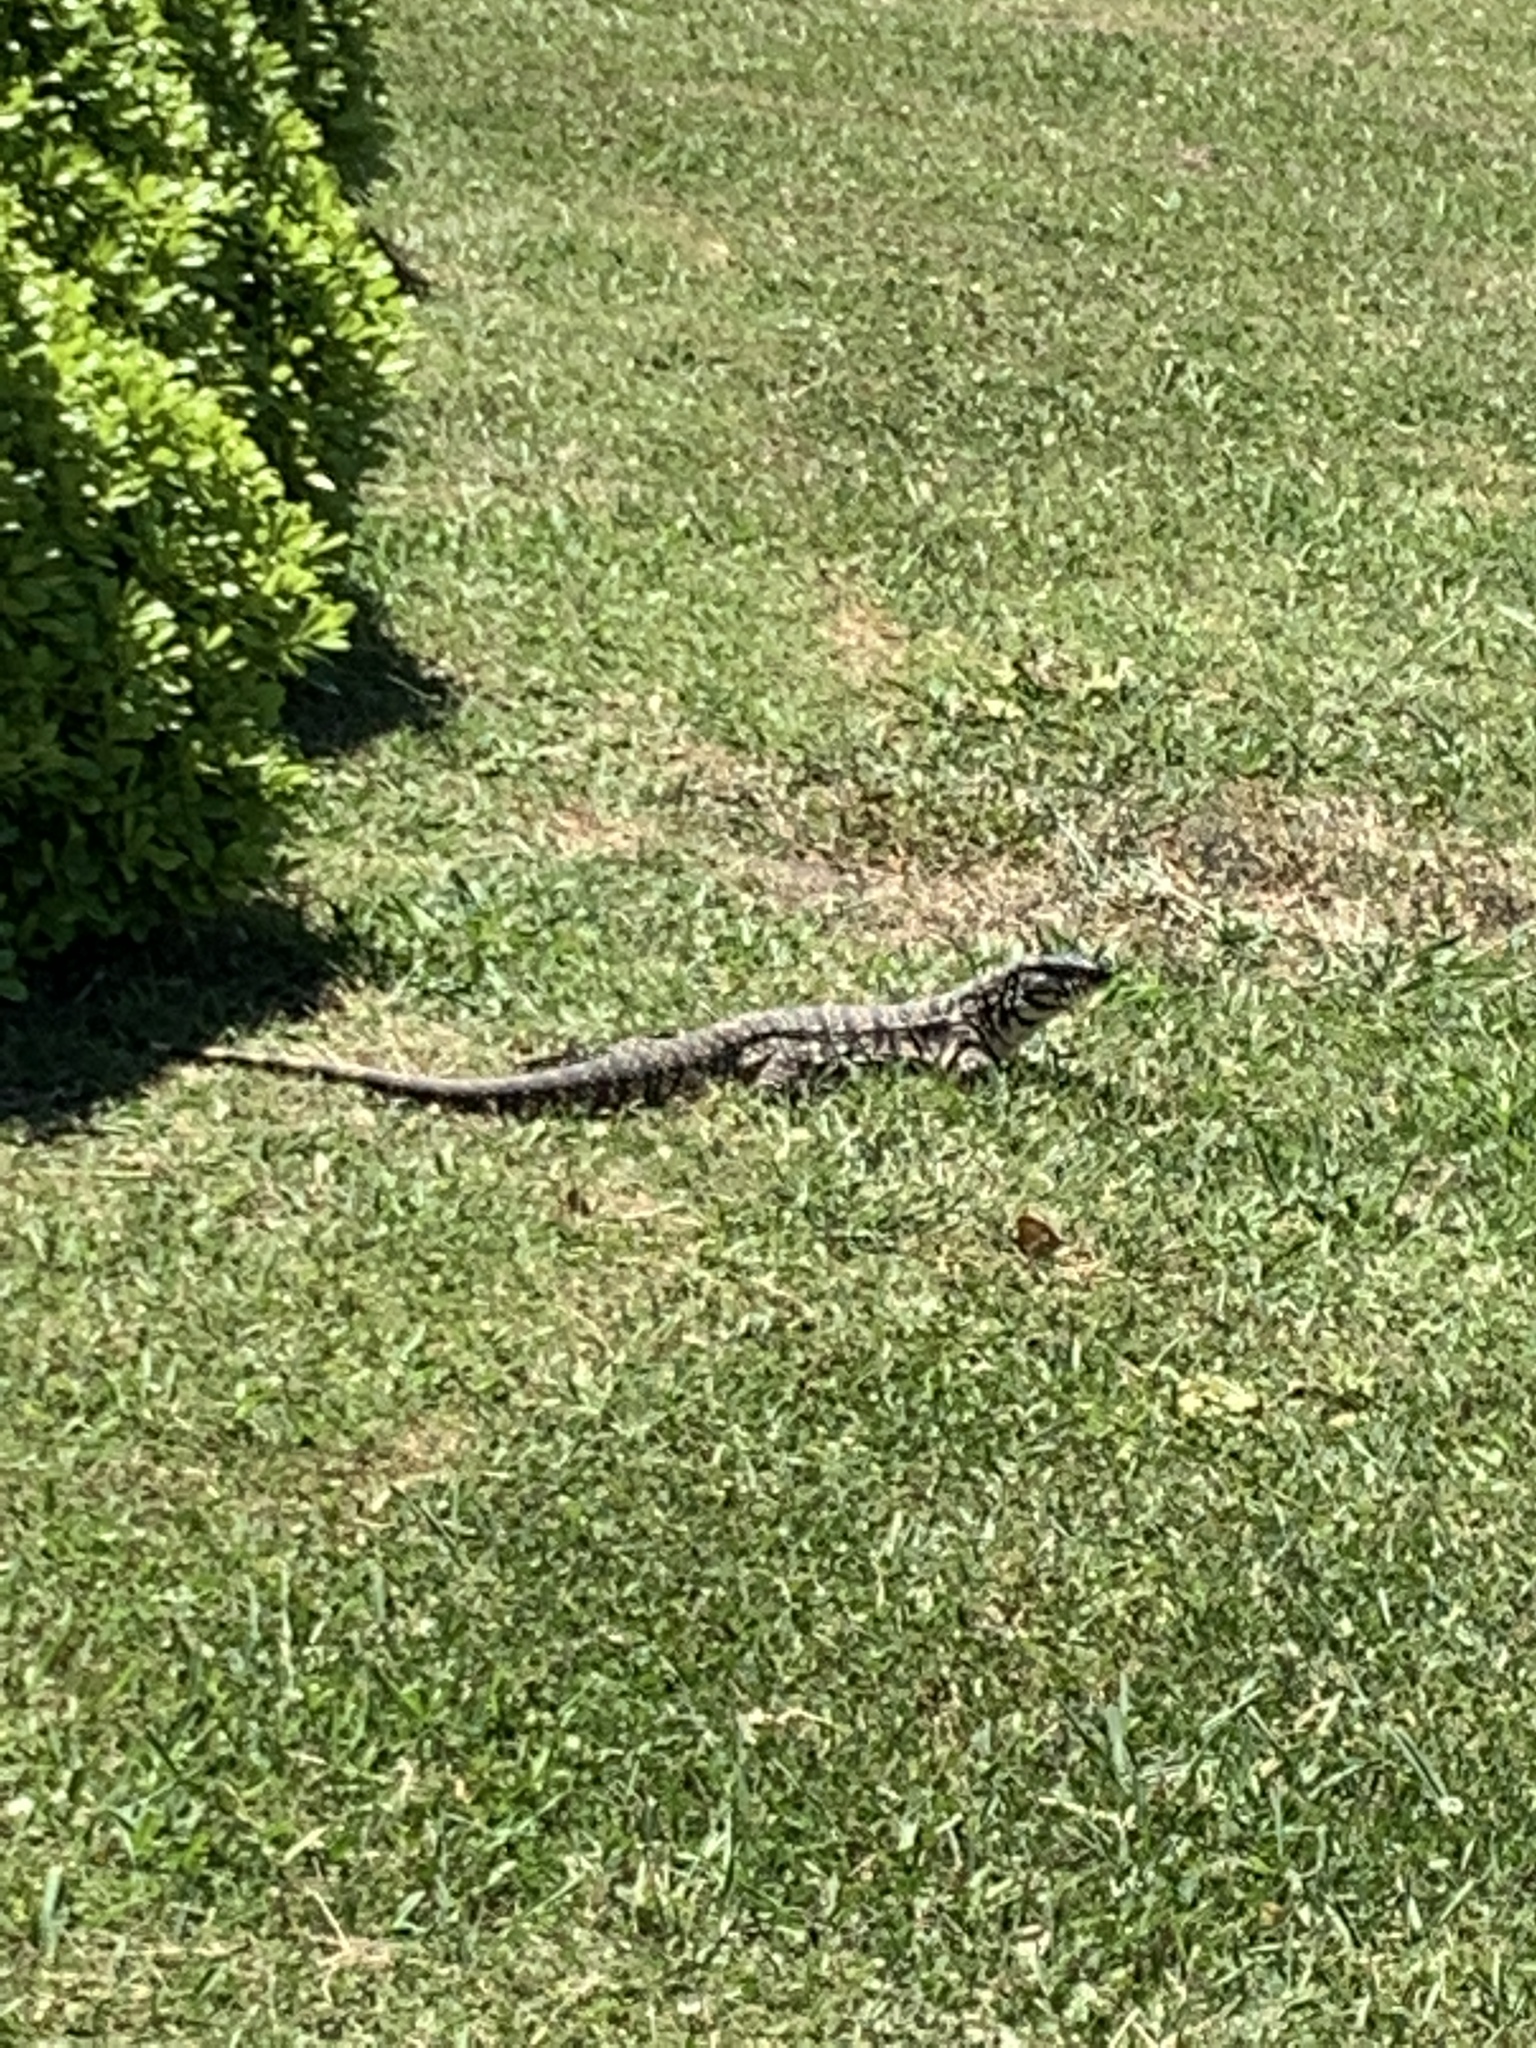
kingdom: Animalia
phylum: Chordata
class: Squamata
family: Teiidae
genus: Salvator
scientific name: Salvator merianae
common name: Argentine black and white tegu
